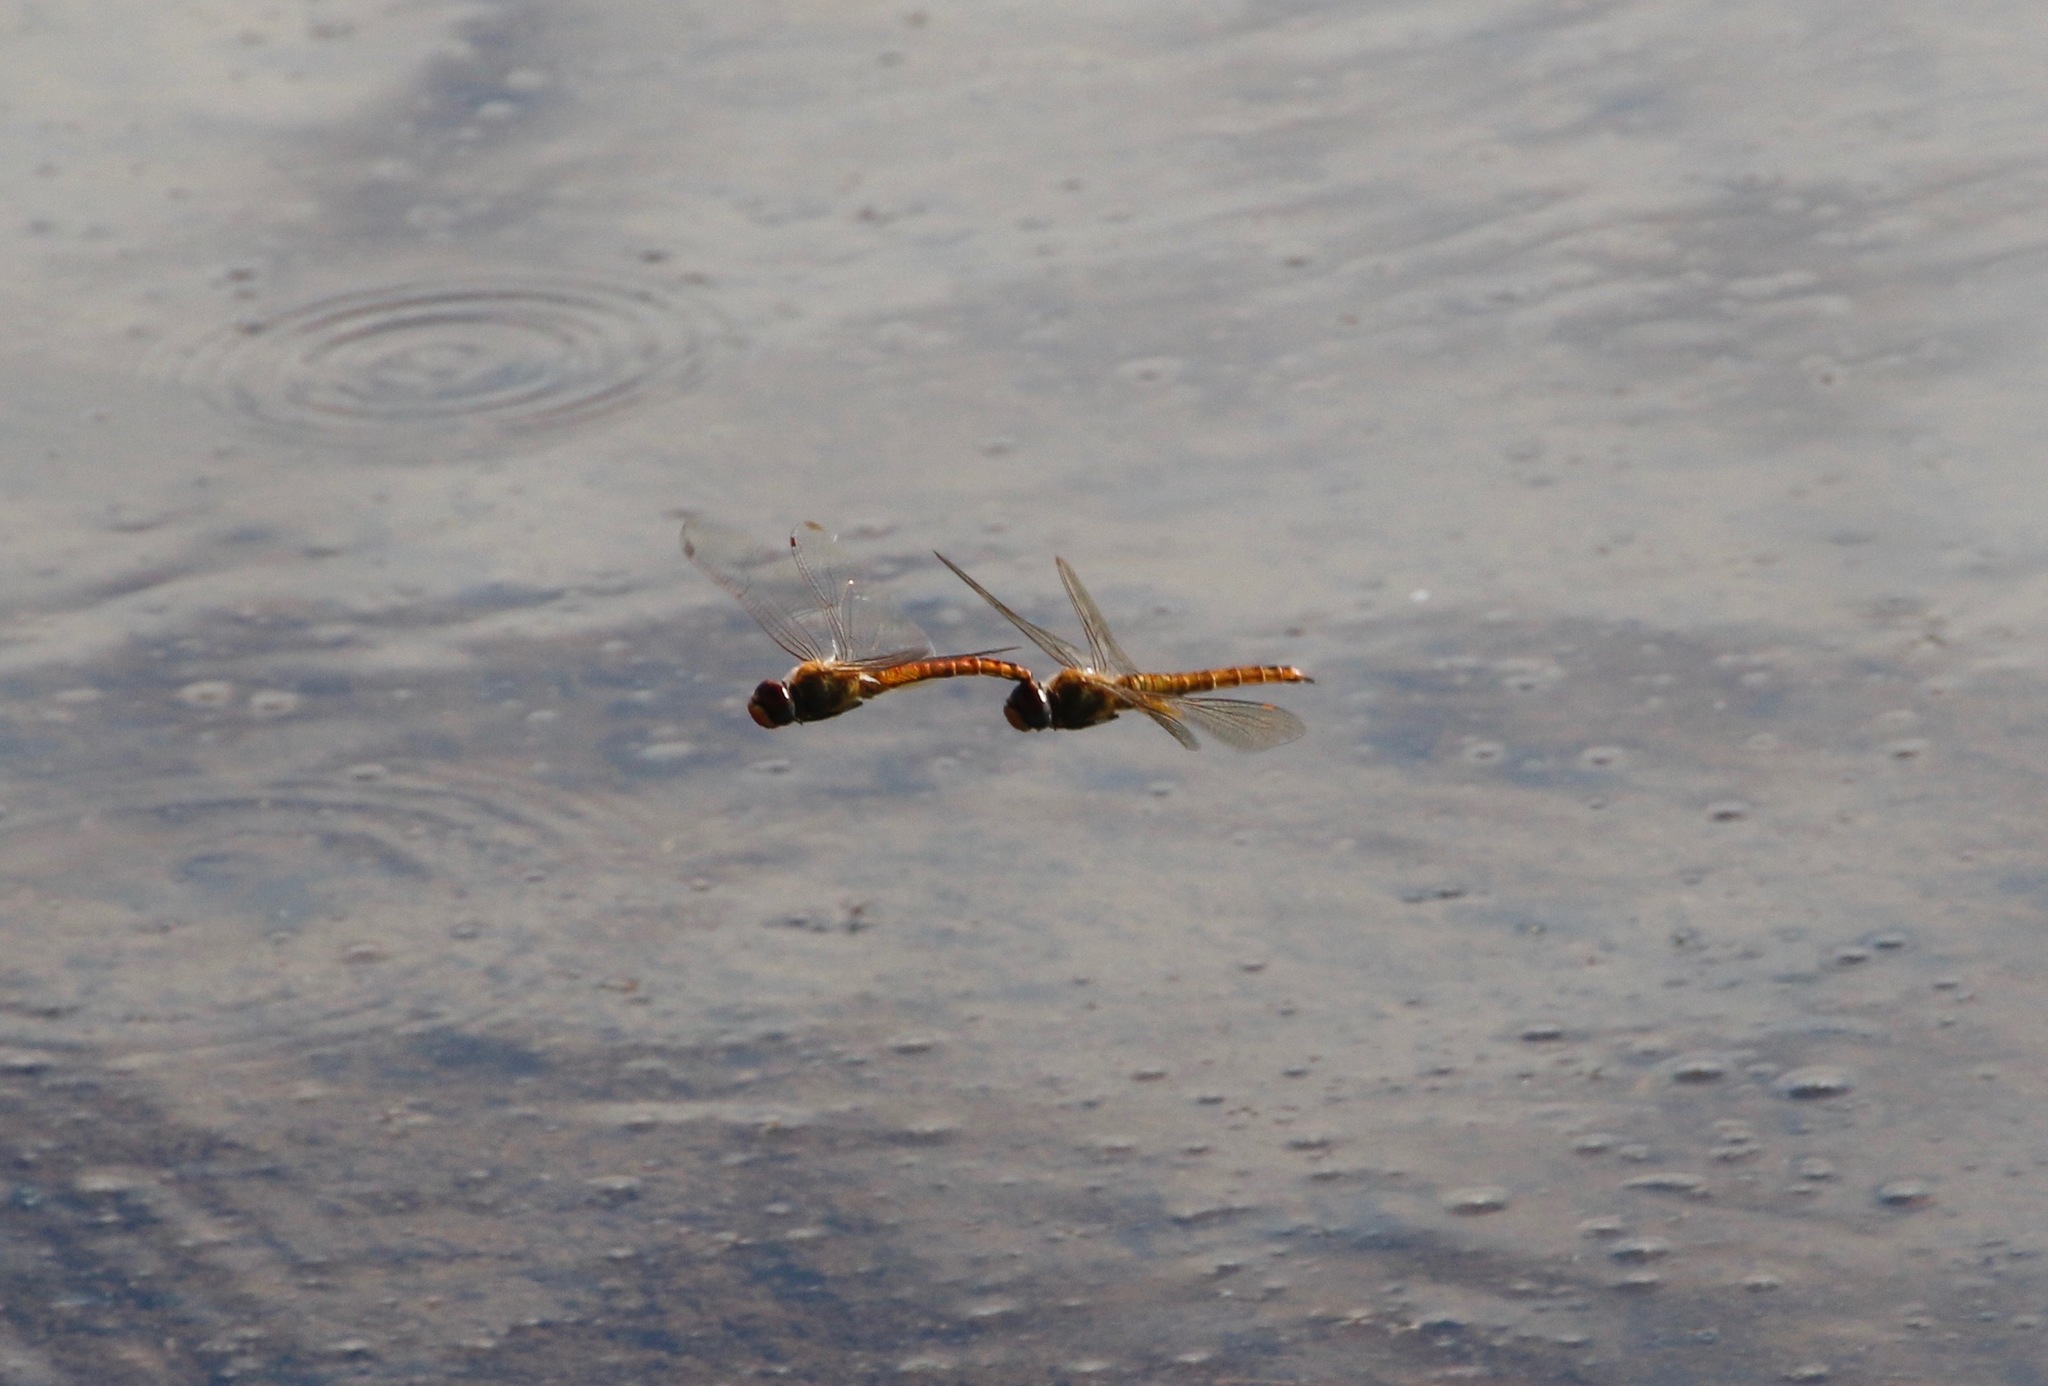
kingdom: Animalia
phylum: Arthropoda
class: Insecta
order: Odonata
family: Libellulidae
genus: Pantala
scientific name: Pantala flavescens
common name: Wandering glider
